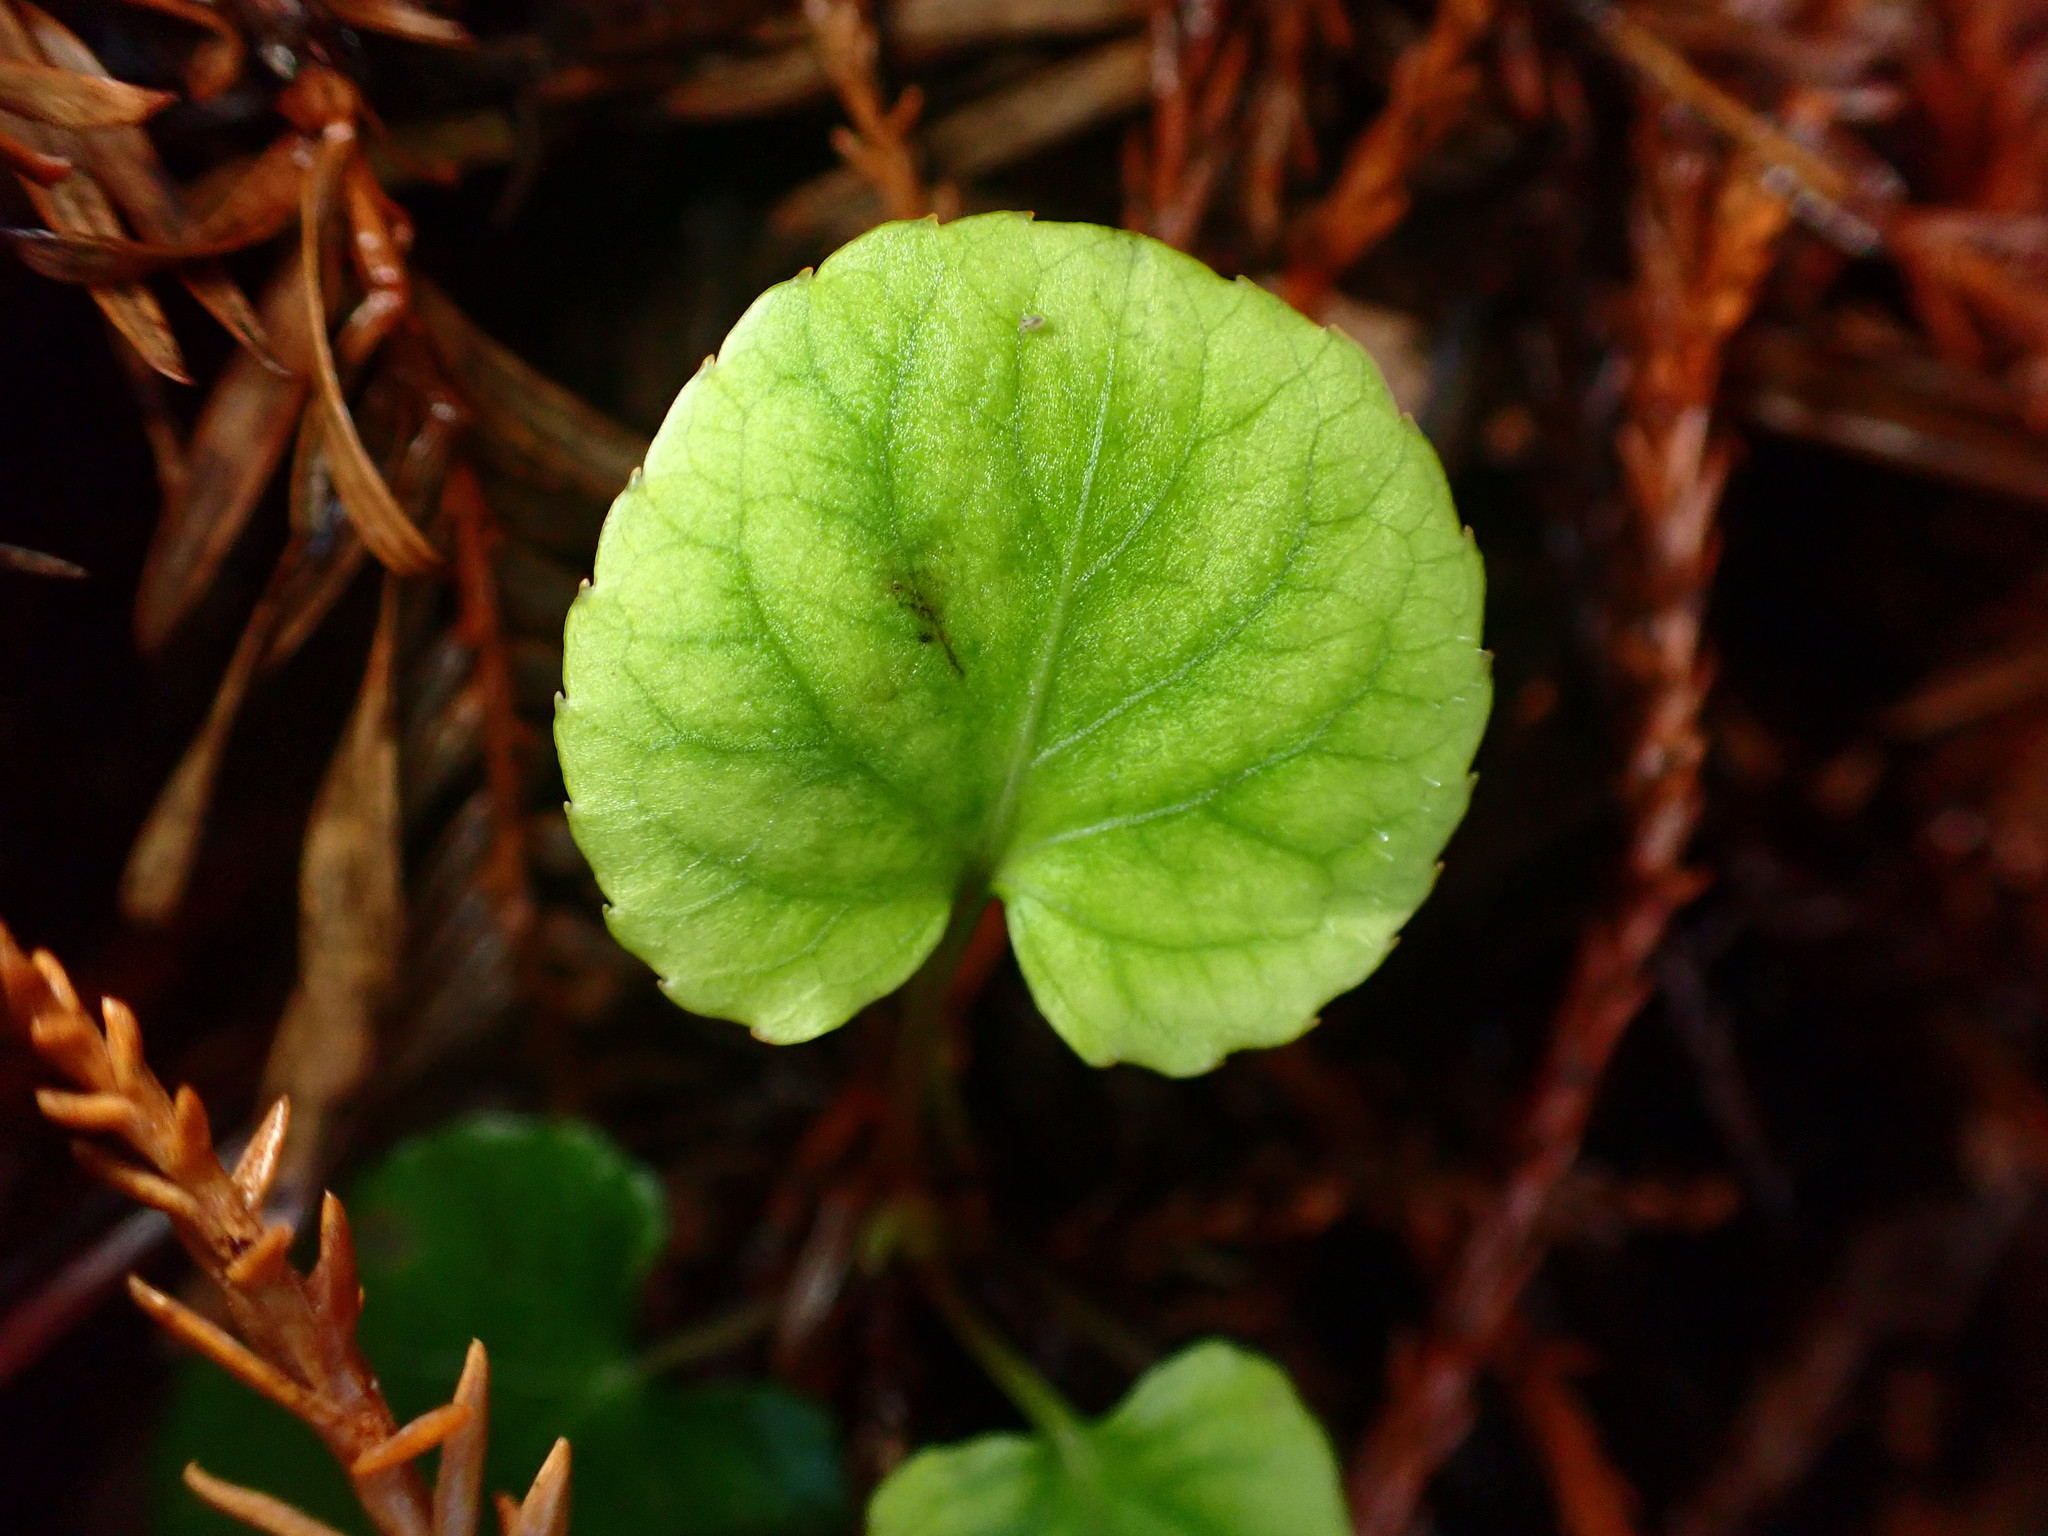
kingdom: Plantae
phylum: Tracheophyta
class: Magnoliopsida
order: Malpighiales
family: Violaceae
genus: Viola
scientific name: Viola sempervirens
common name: Evergreen violet
